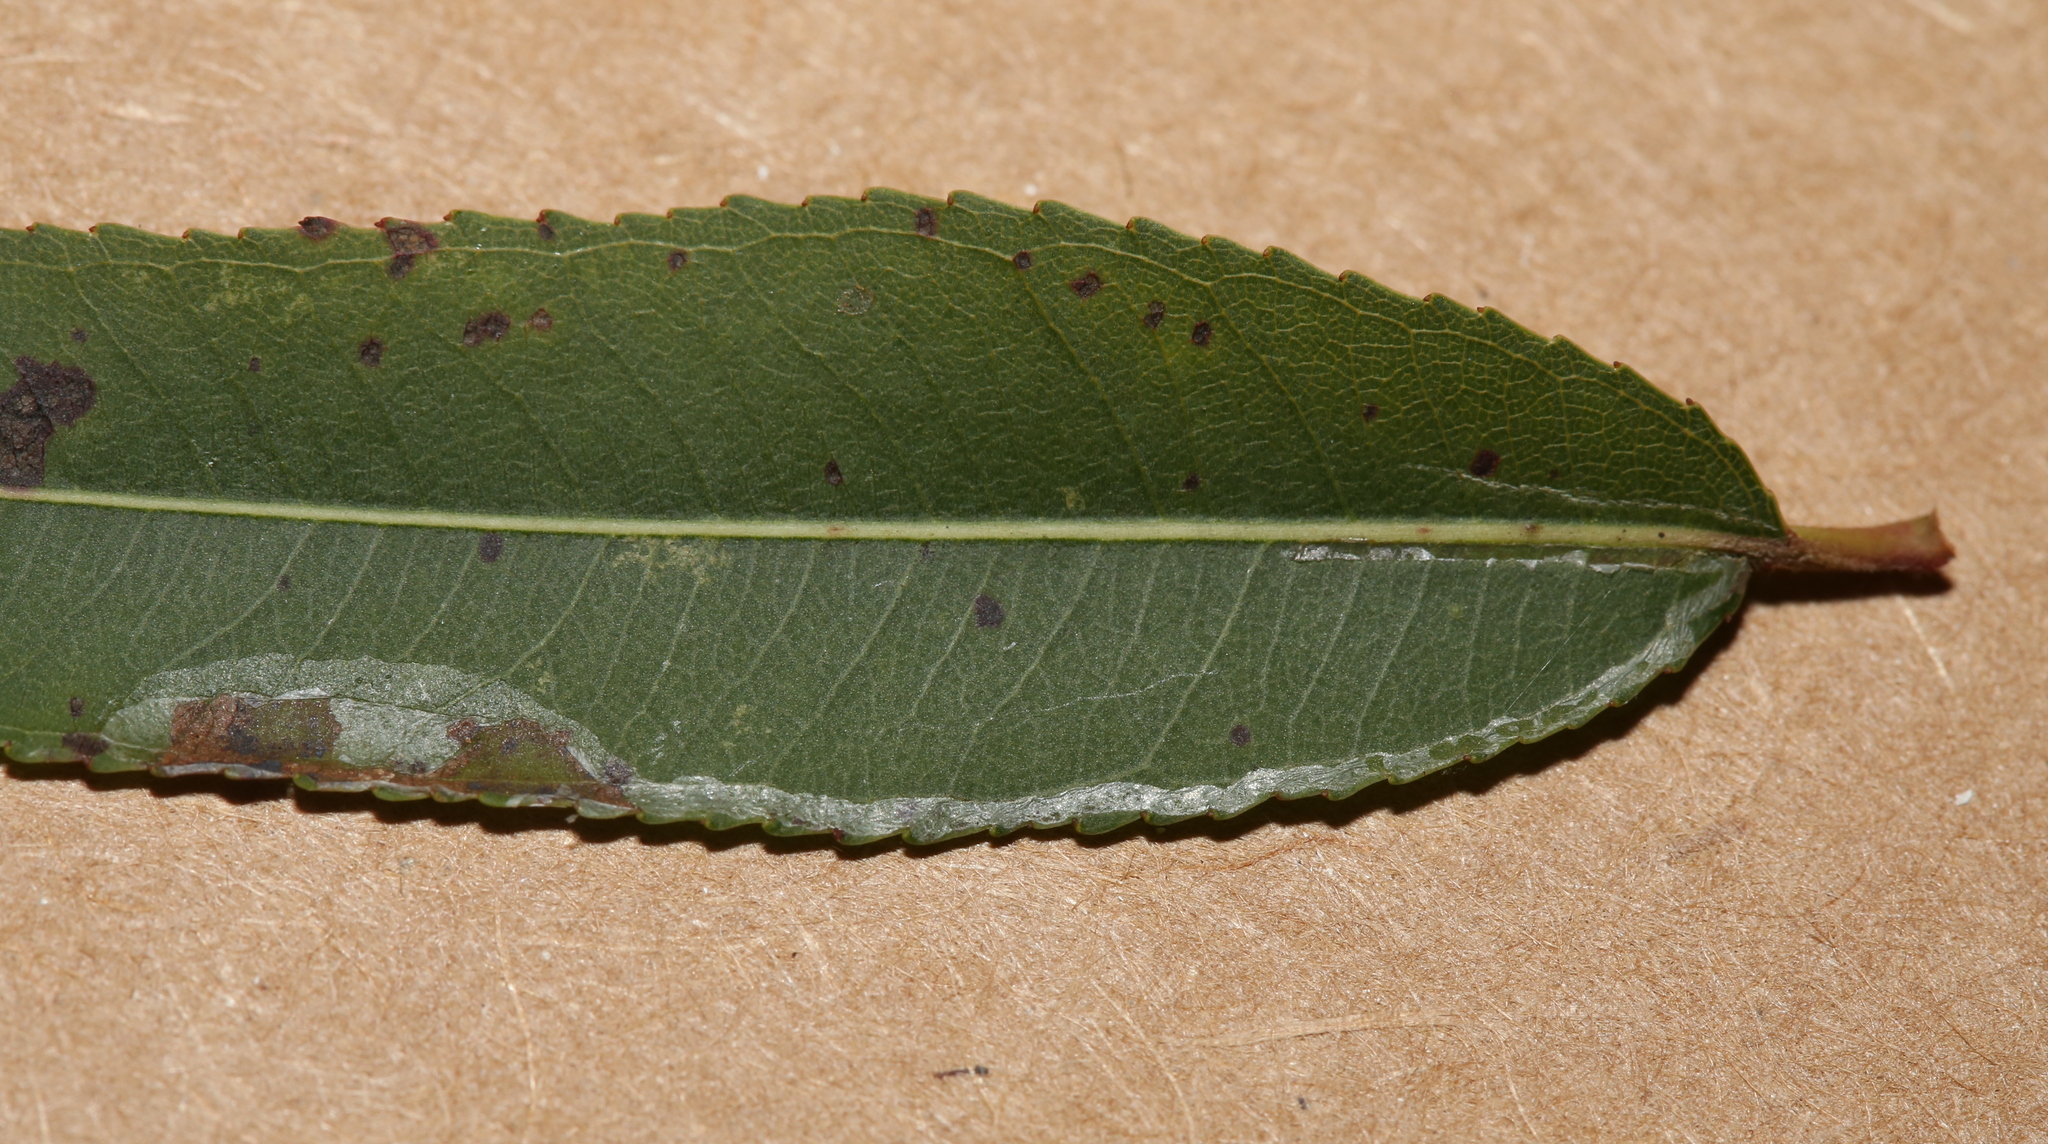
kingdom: Animalia
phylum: Arthropoda
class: Insecta
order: Lepidoptera
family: Gracillariidae
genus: Caloptilia
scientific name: Caloptilia stigmatella
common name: White-triangle slender
